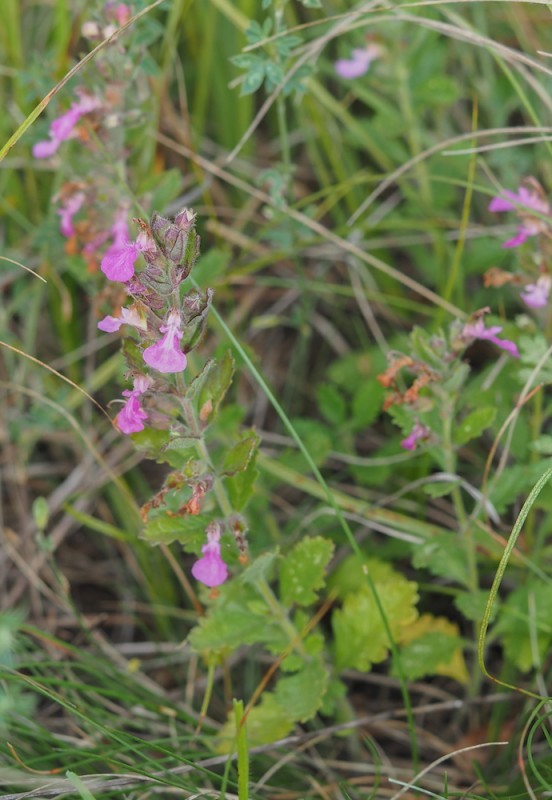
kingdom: Plantae
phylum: Tracheophyta
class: Magnoliopsida
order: Lamiales
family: Lamiaceae
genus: Teucrium
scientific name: Teucrium chamaedrys
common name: Wall germander
